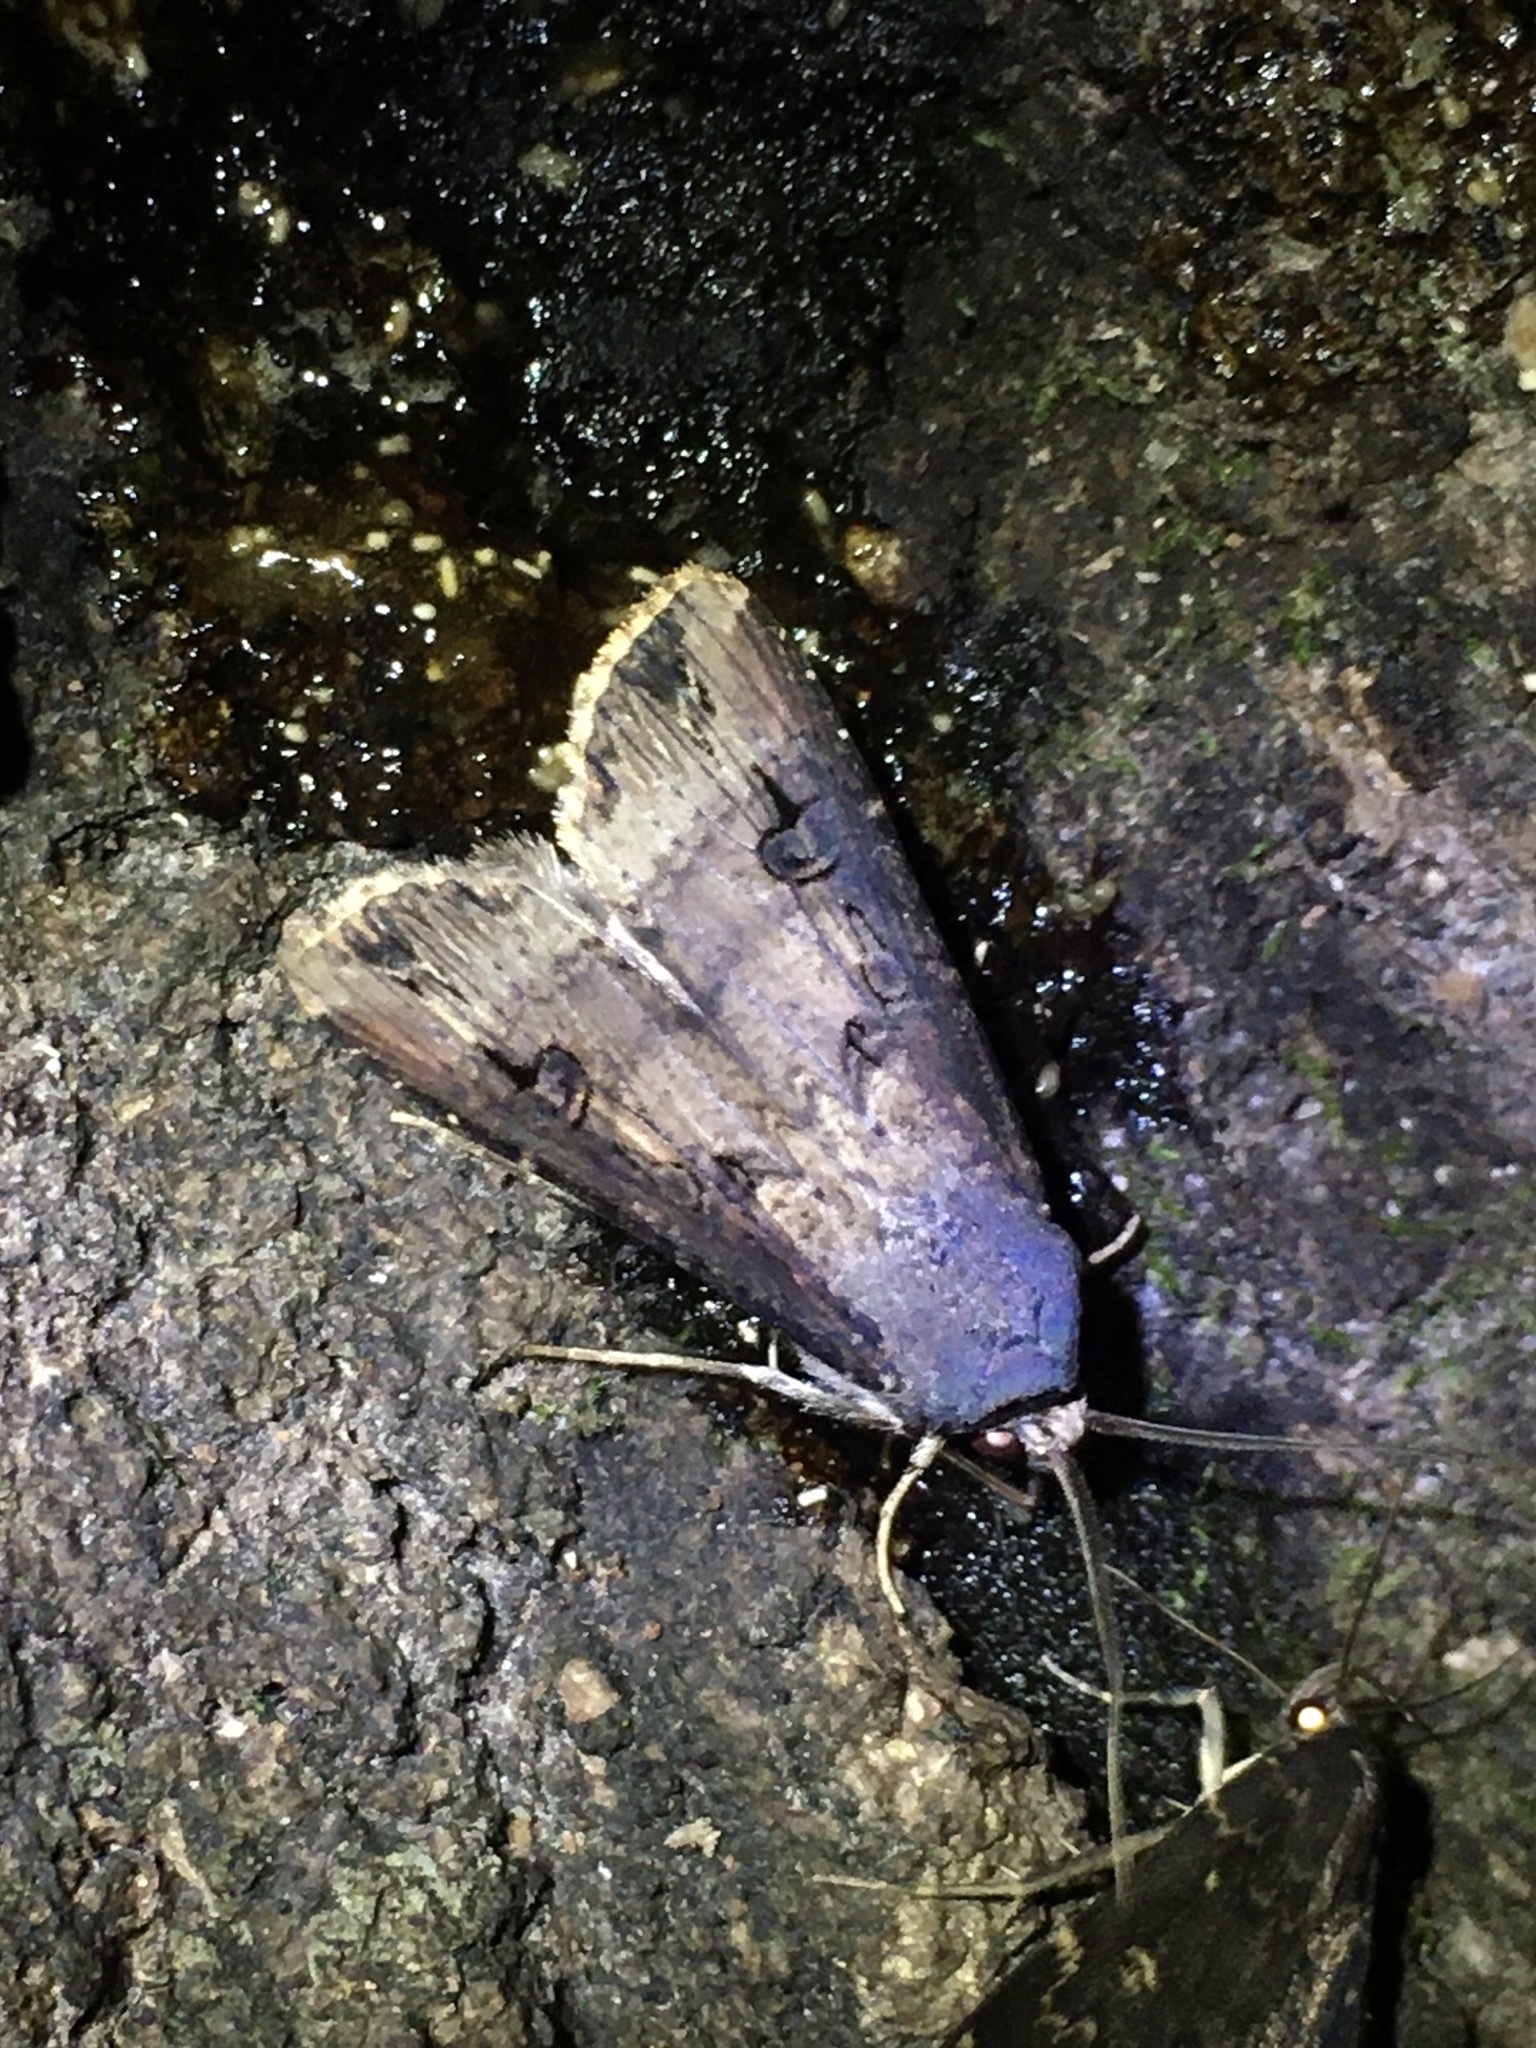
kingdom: Animalia
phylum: Arthropoda
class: Insecta
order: Lepidoptera
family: Noctuidae
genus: Agrotis
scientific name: Agrotis ipsilon
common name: Dark sword-grass
